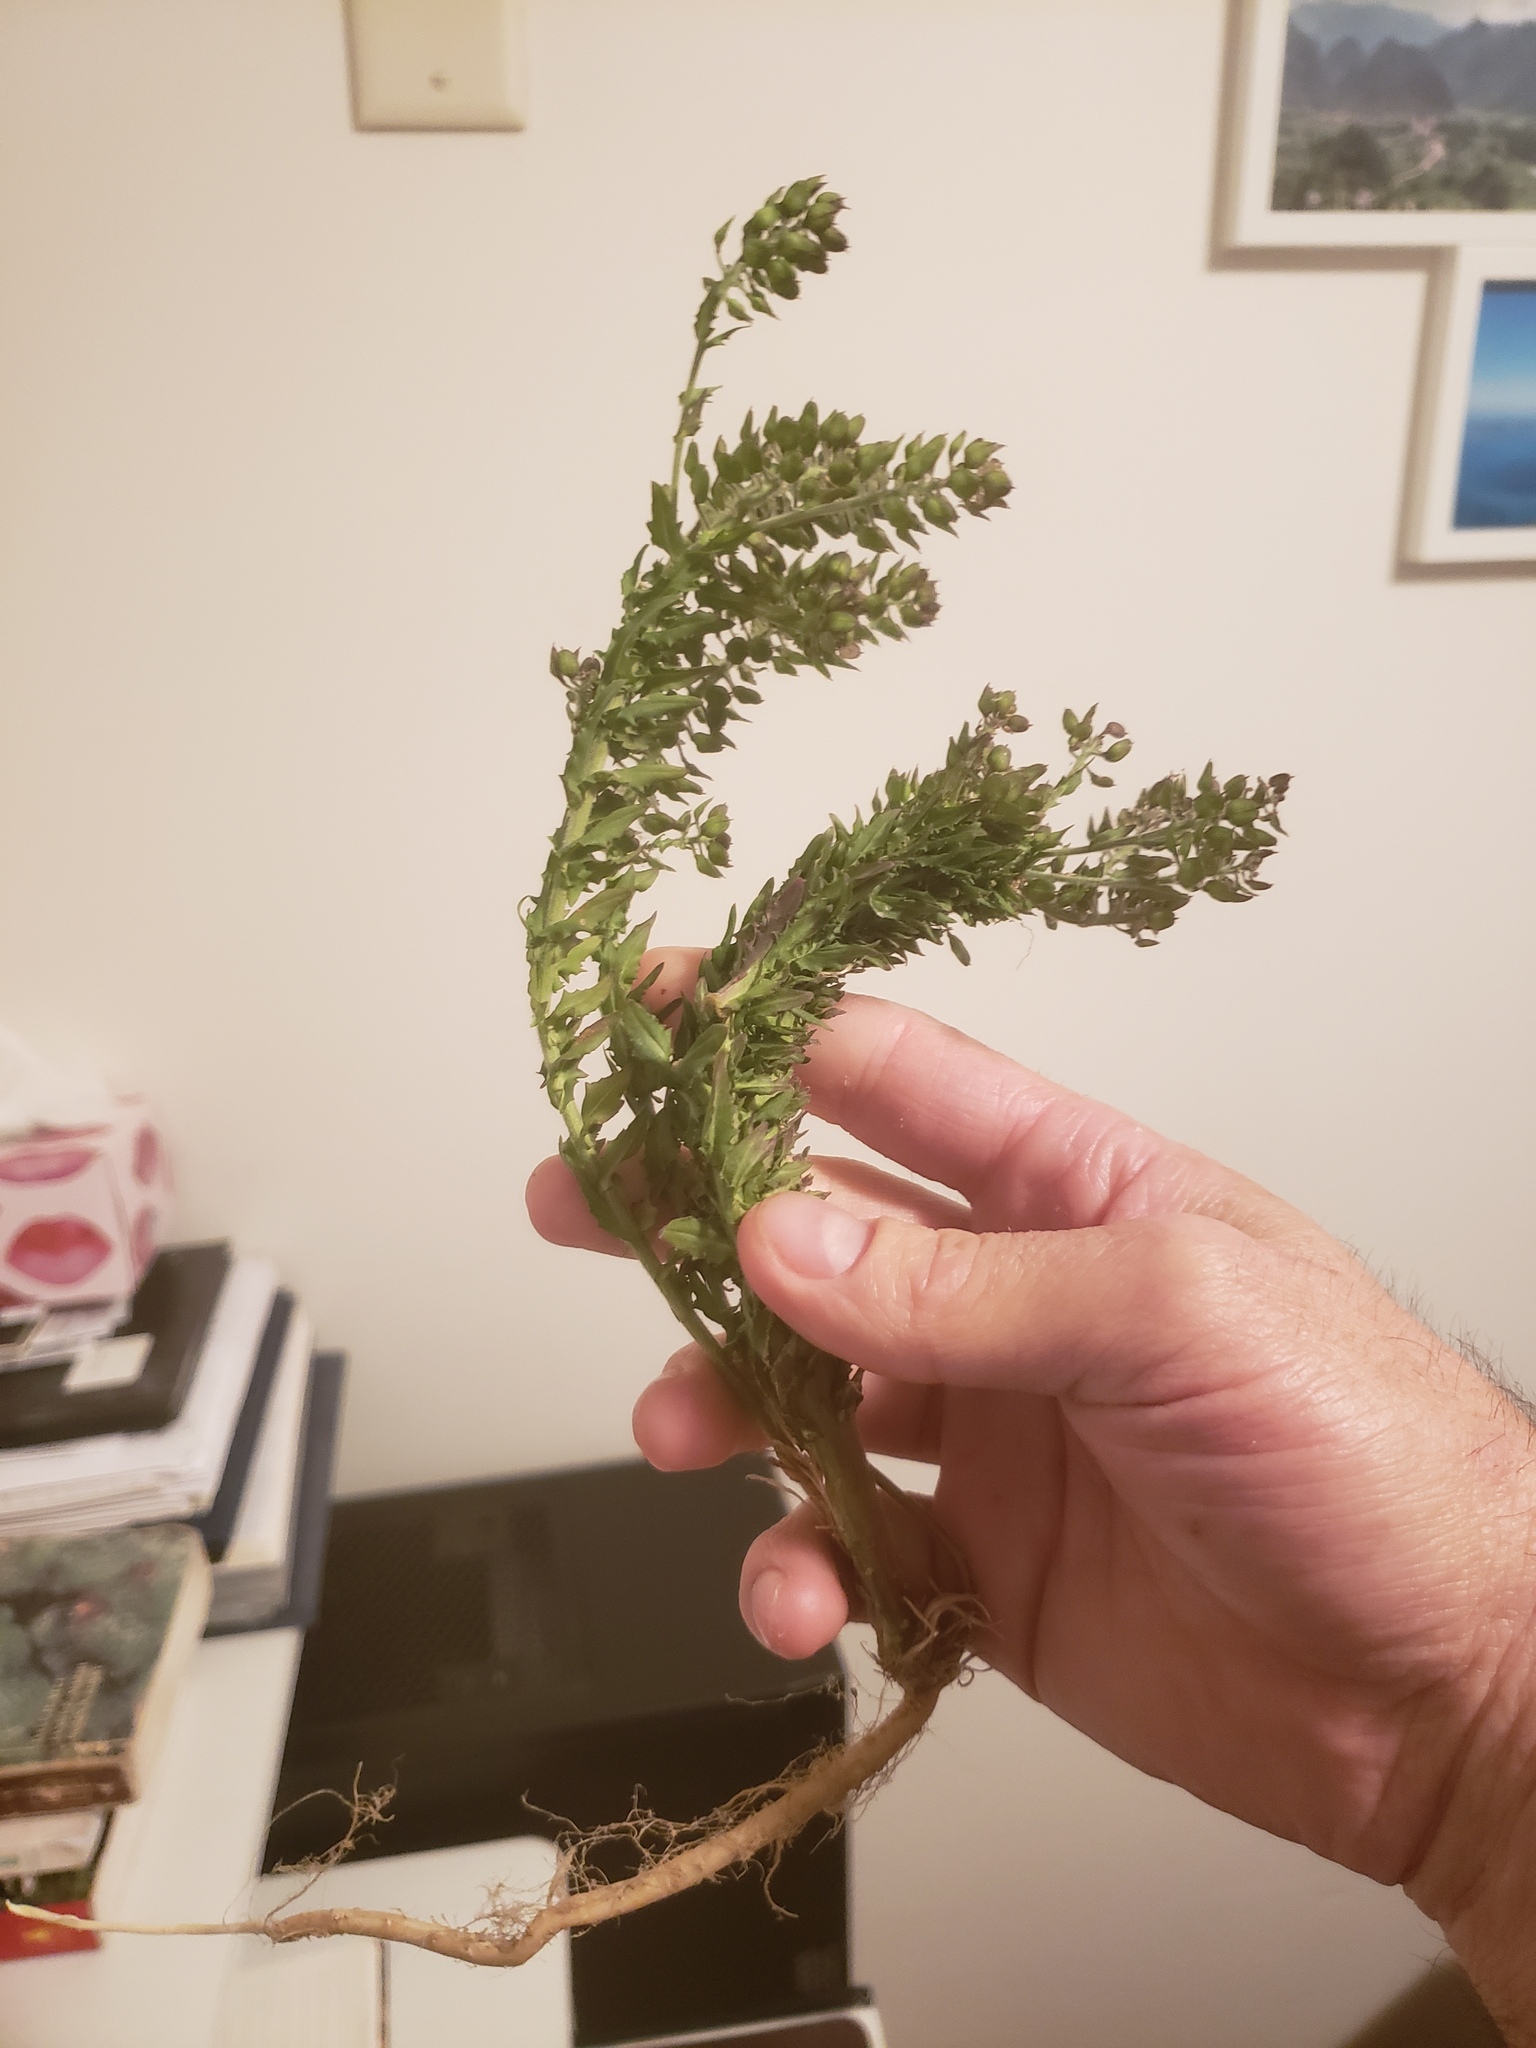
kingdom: Plantae
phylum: Tracheophyta
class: Magnoliopsida
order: Brassicales
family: Brassicaceae
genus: Lepidium
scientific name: Lepidium campestre
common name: Field pepperwort
